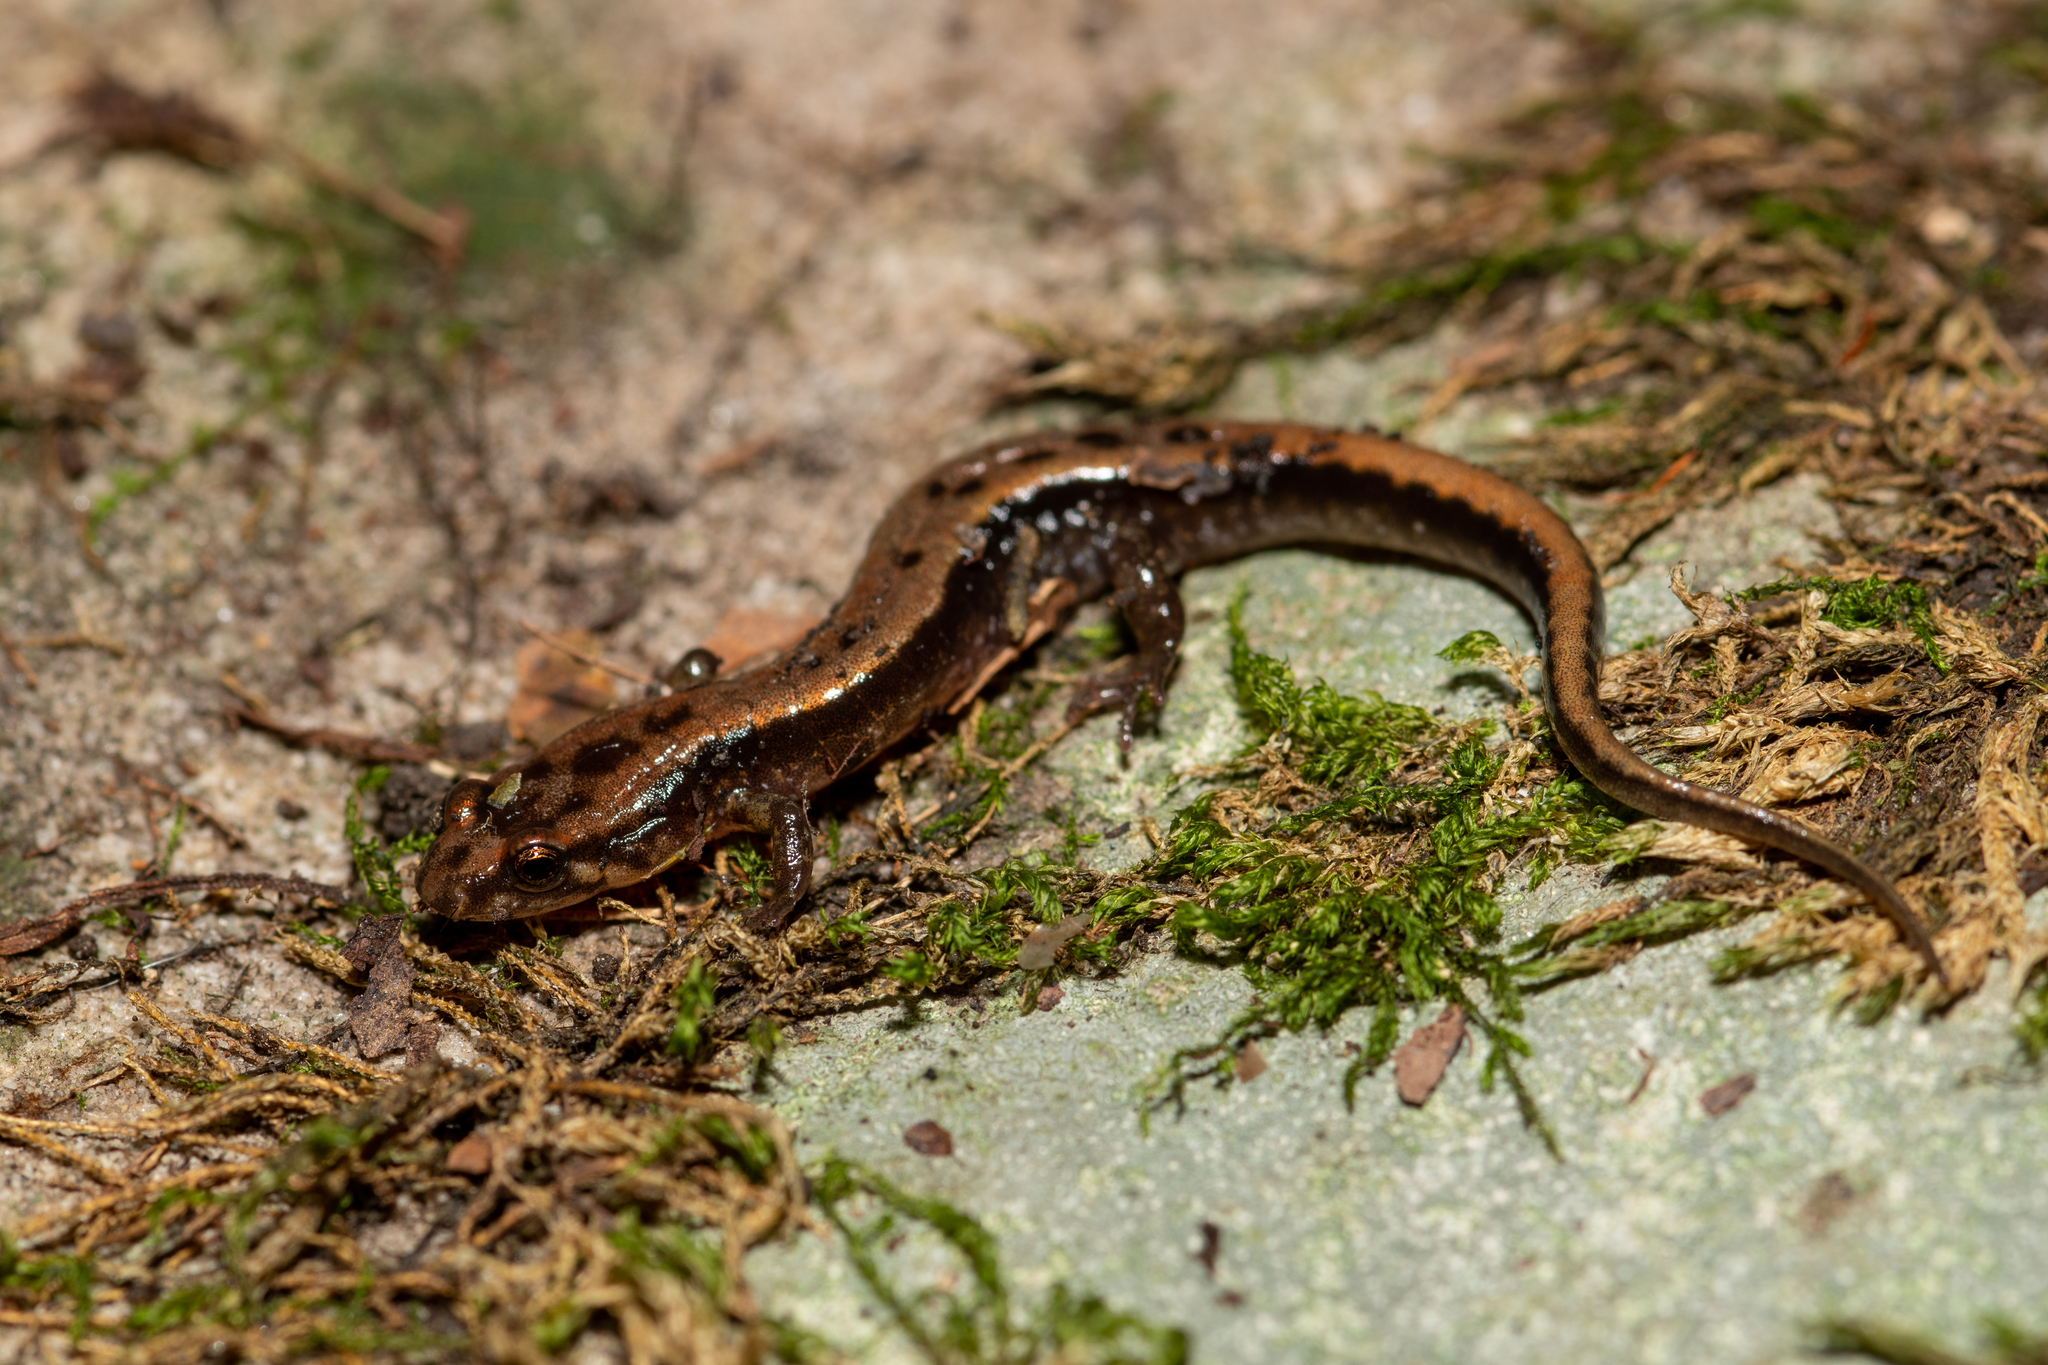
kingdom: Animalia
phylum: Chordata
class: Amphibia
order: Caudata
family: Plethodontidae
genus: Desmognathus
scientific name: Desmognathus ochrophaeus
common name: Allegheny mountain dusky salamander
